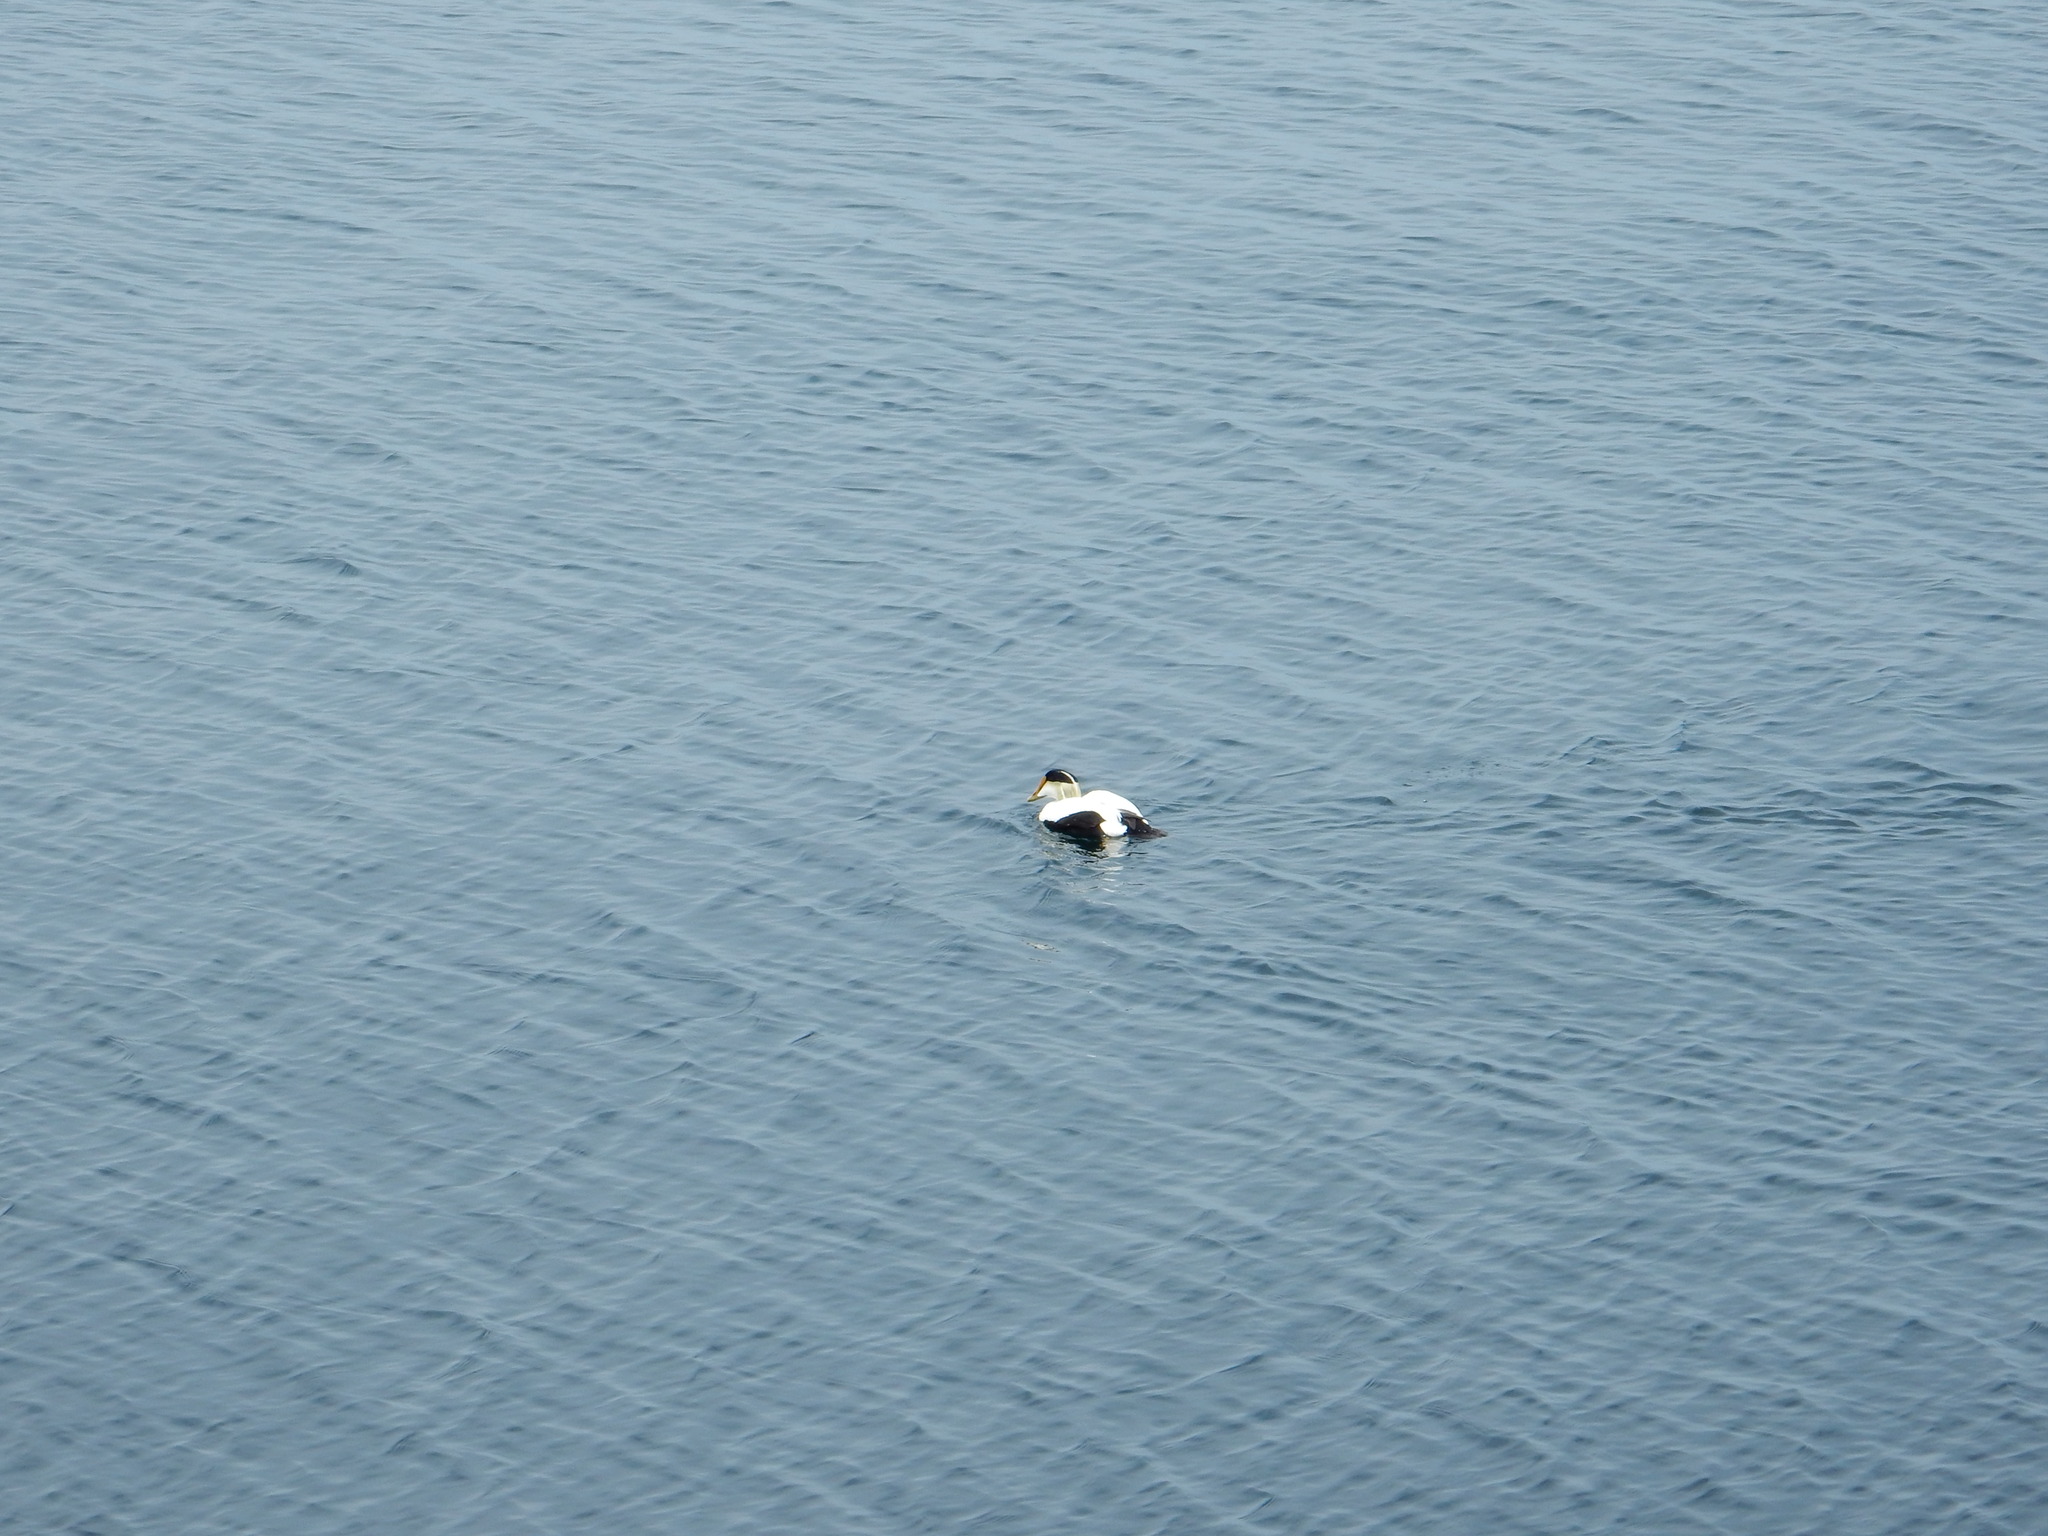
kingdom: Animalia
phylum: Chordata
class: Aves
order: Anseriformes
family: Anatidae
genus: Somateria
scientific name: Somateria mollissima
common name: Common eider
